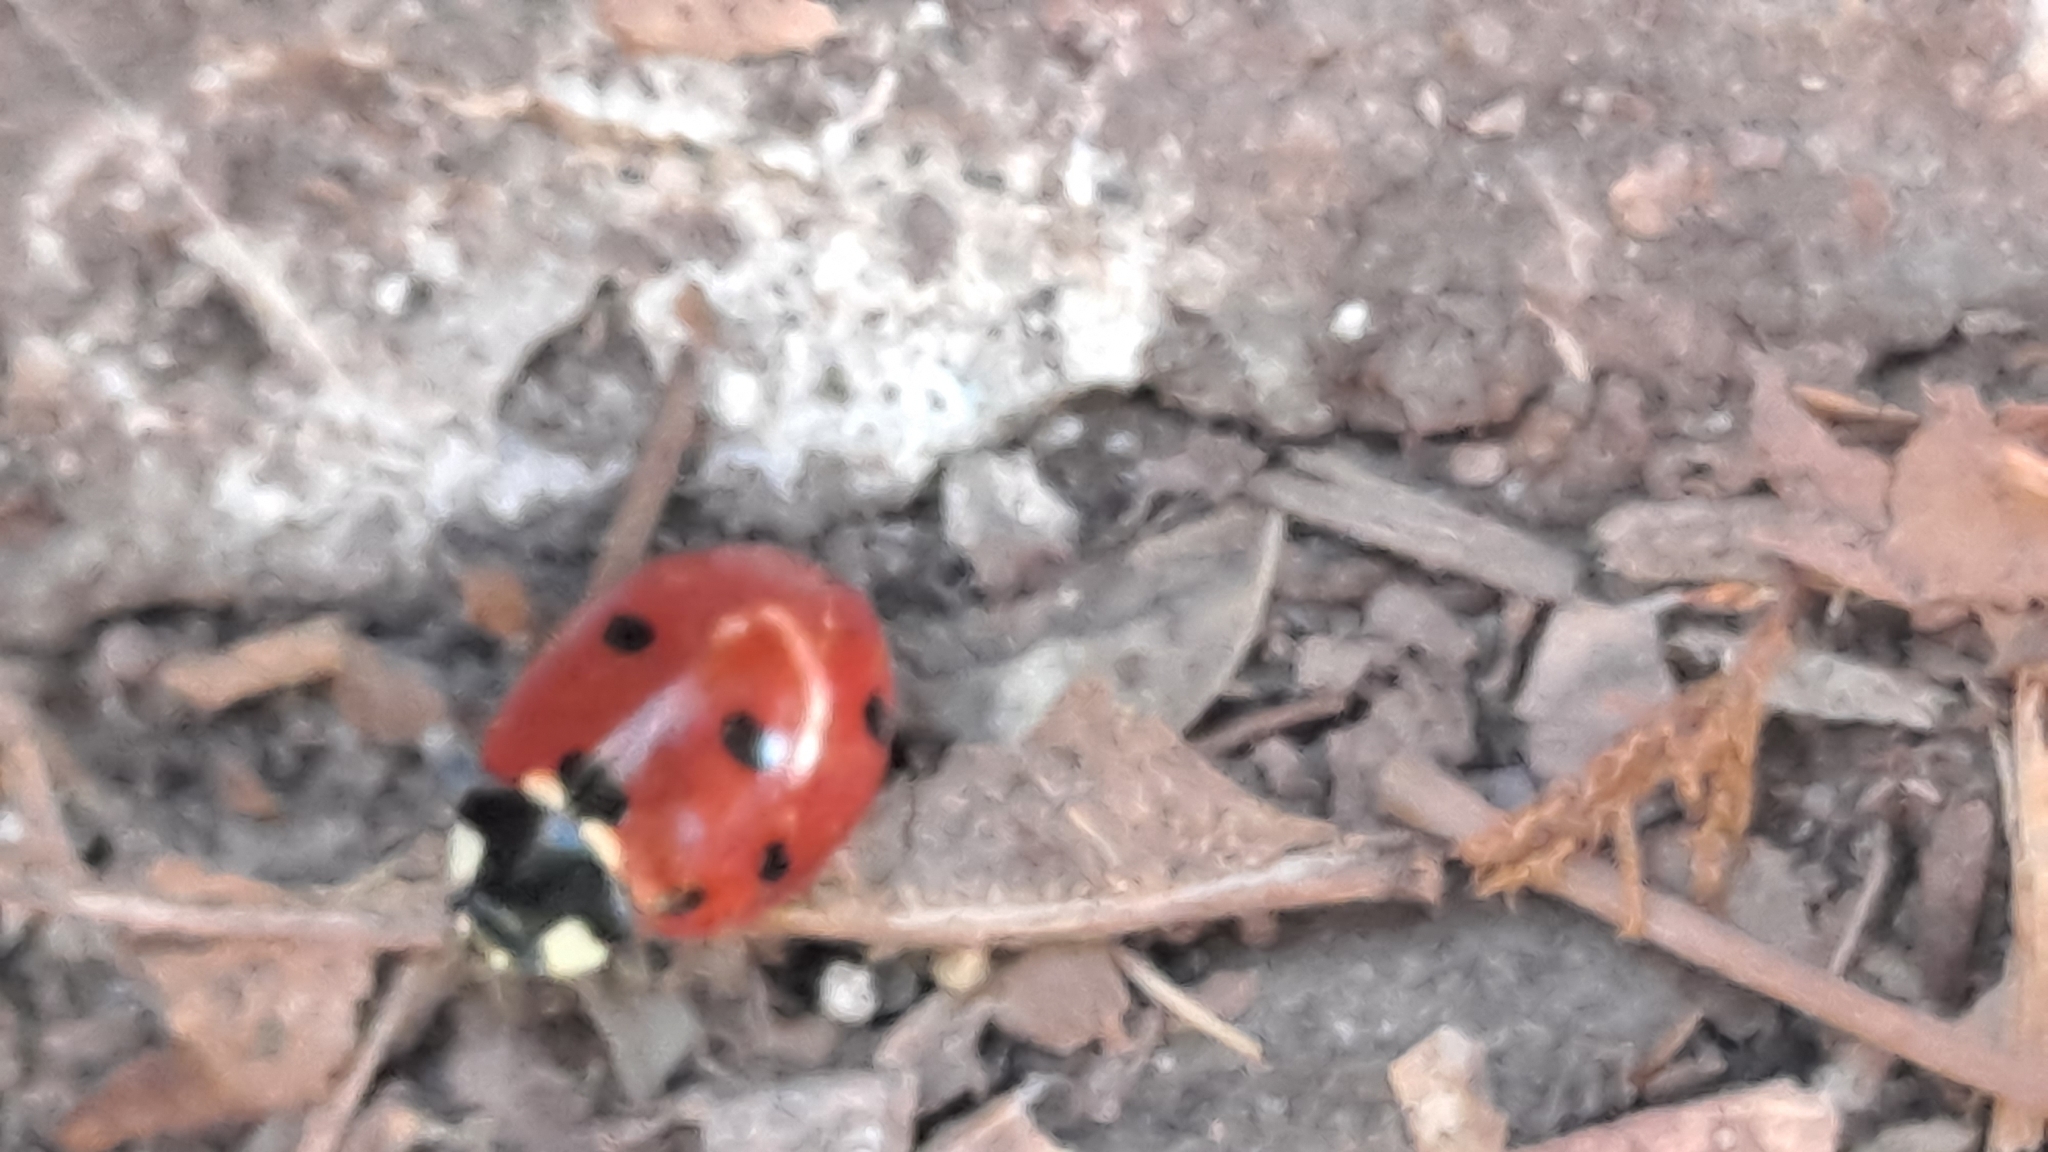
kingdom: Animalia
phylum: Arthropoda
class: Insecta
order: Coleoptera
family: Coccinellidae
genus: Coccinella
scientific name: Coccinella septempunctata
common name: Sevenspotted lady beetle
